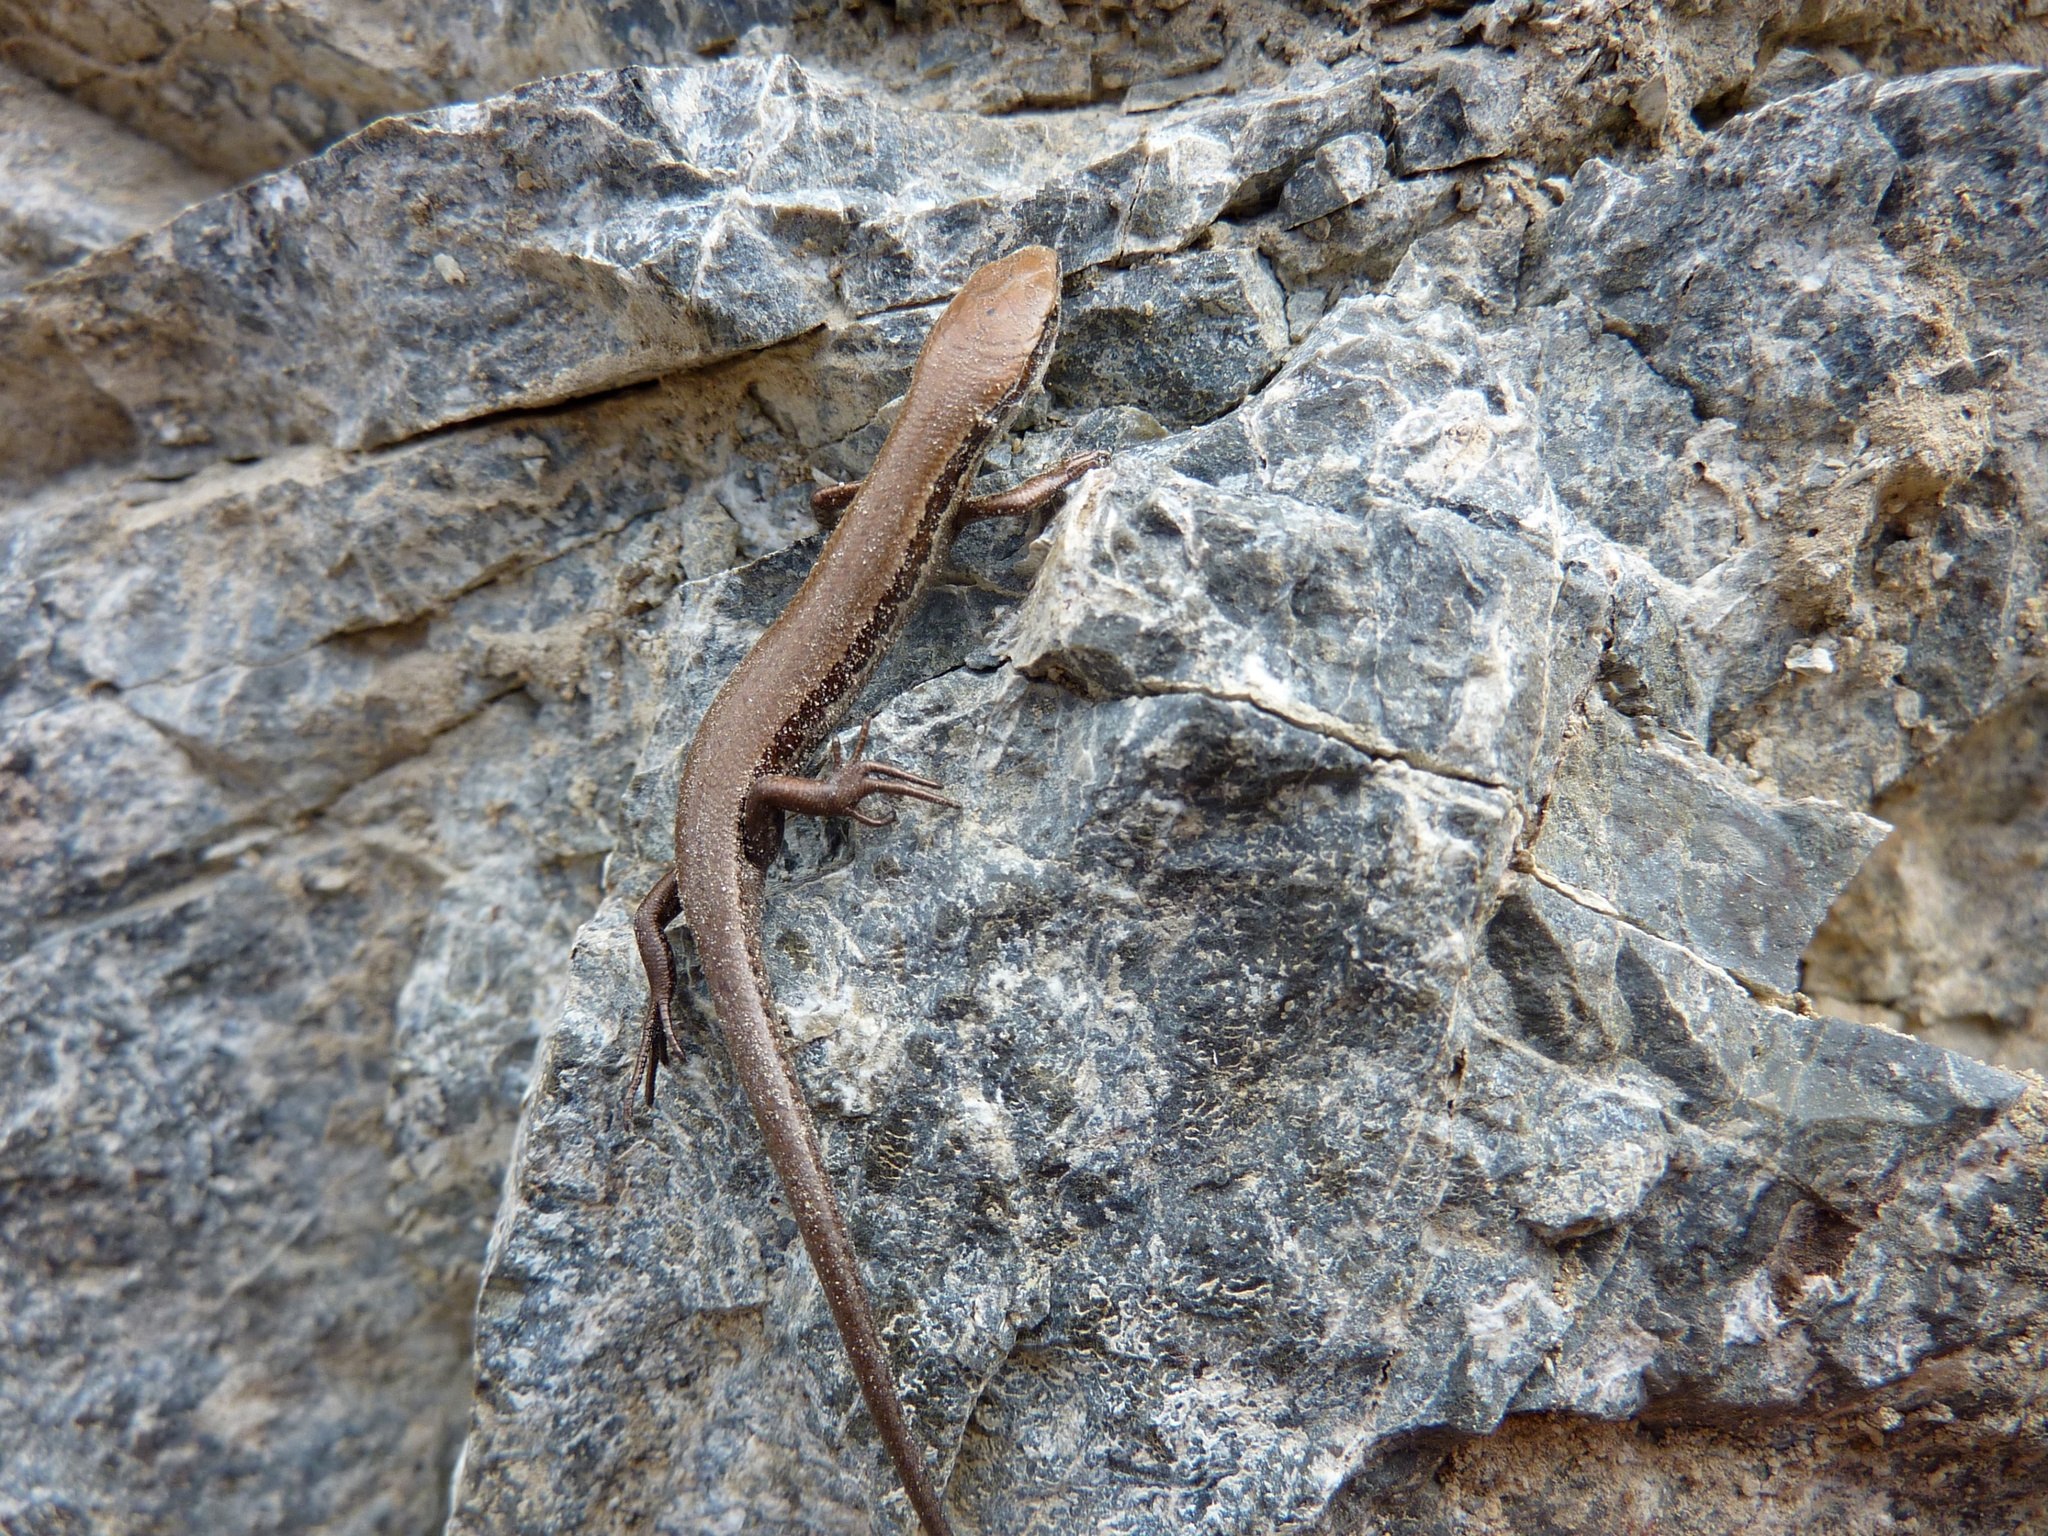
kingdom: Animalia
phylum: Chordata
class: Squamata
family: Scincidae
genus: Oligosoma
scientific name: Oligosoma polychroma
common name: Common new zealand skink
